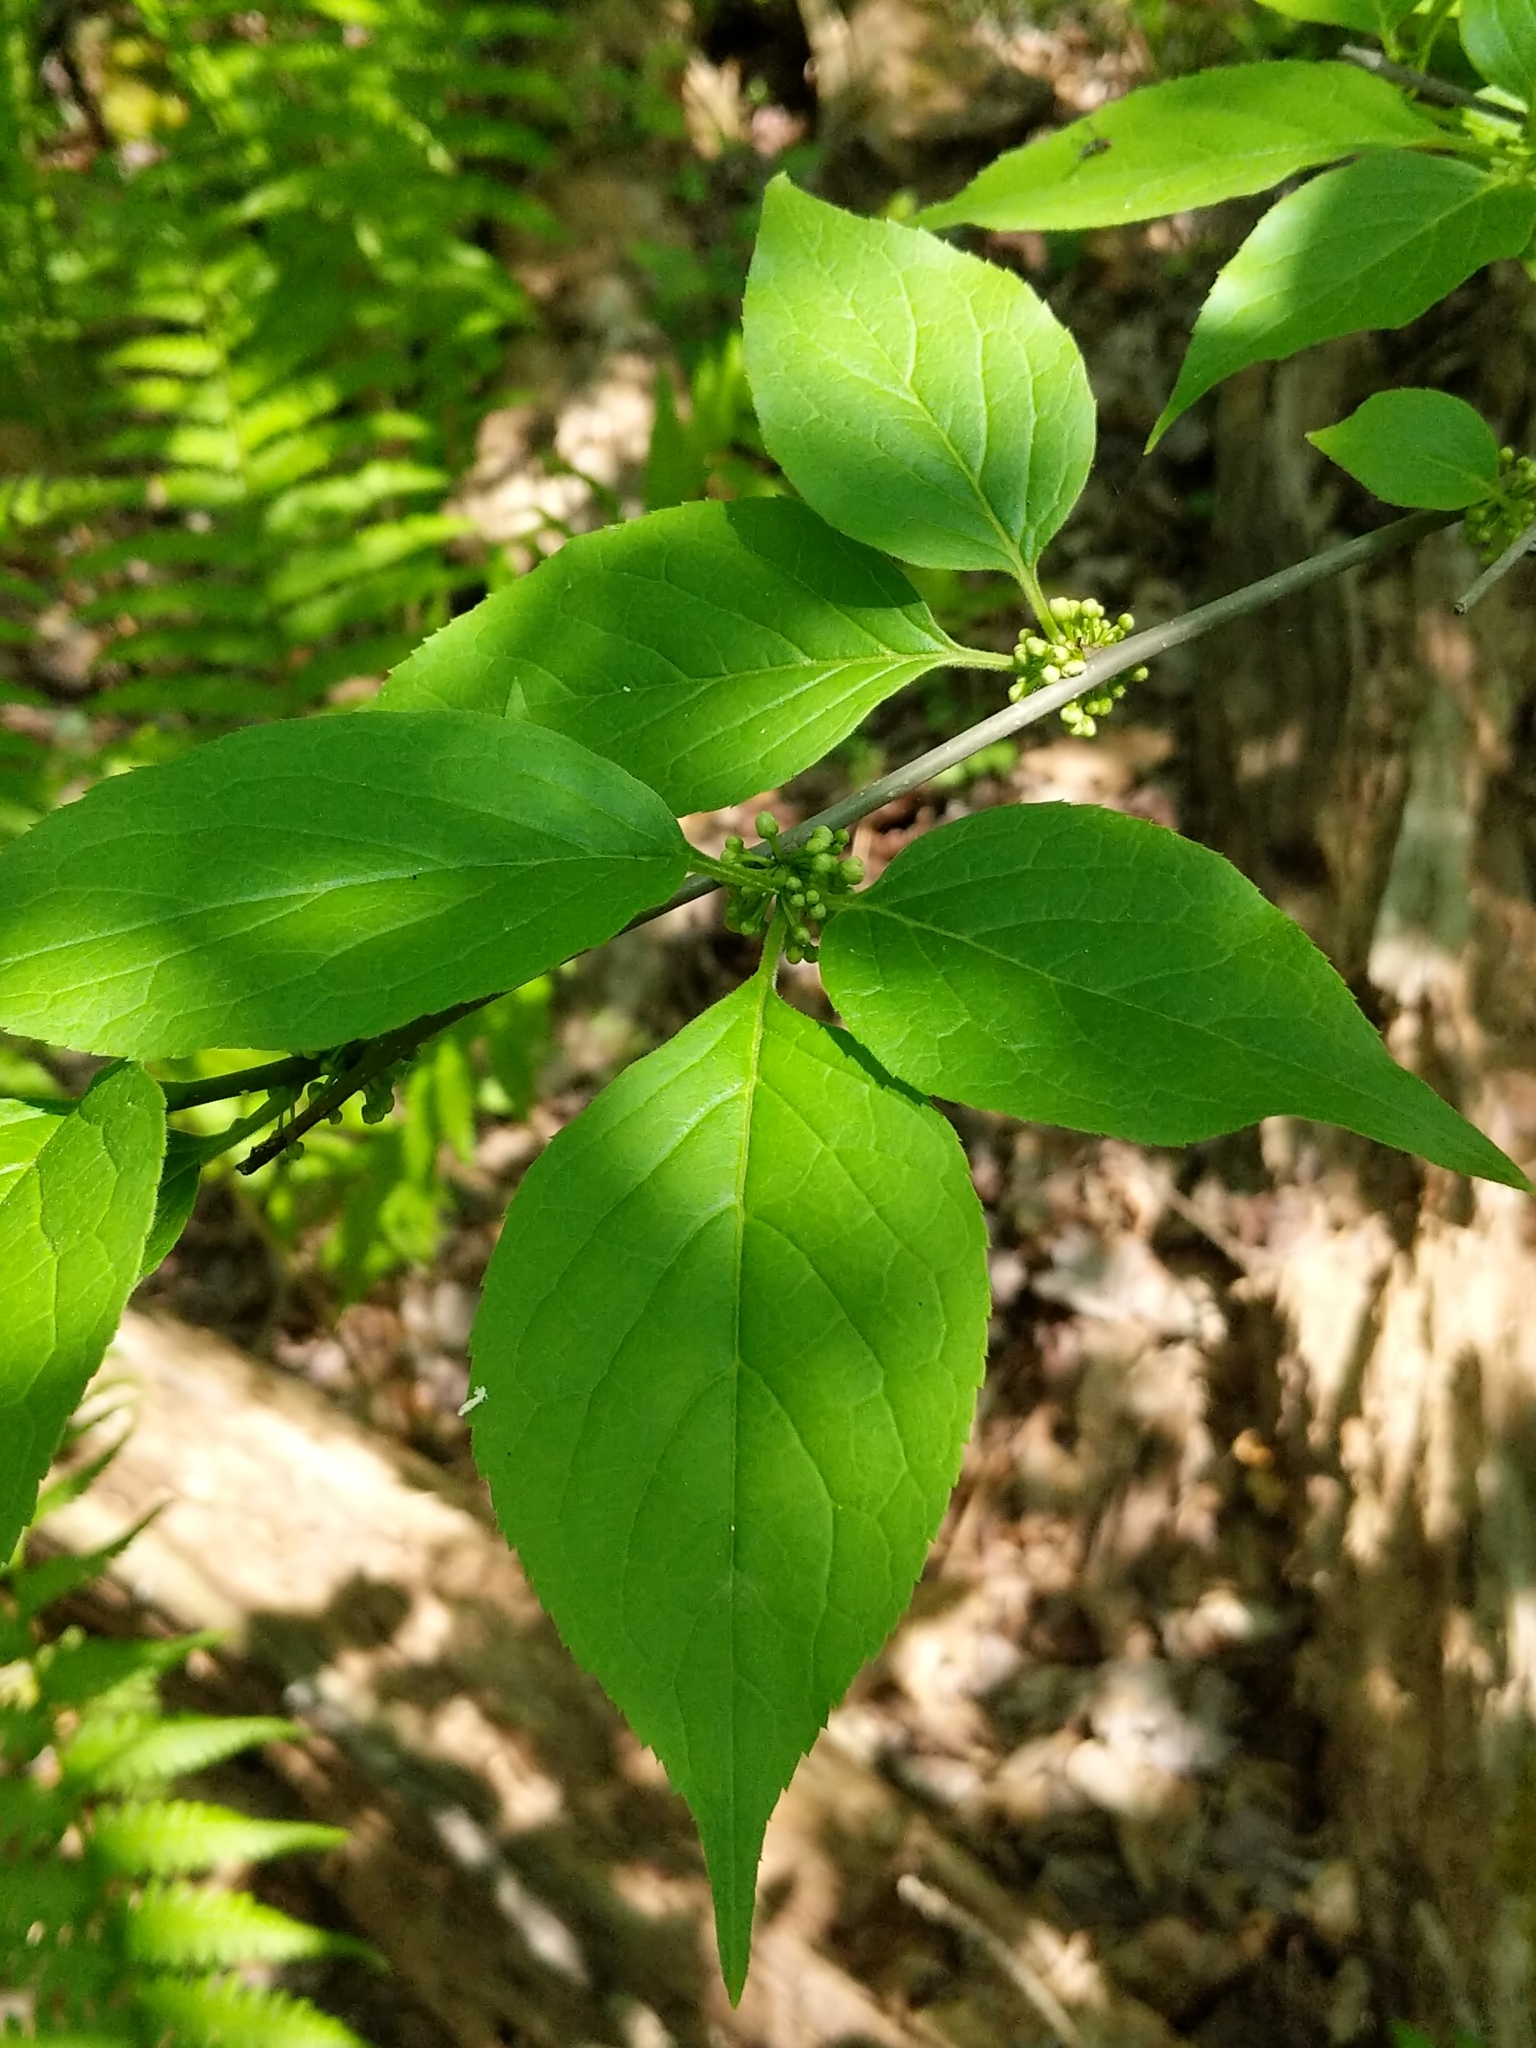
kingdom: Plantae
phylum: Tracheophyta
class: Magnoliopsida
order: Aquifoliales
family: Aquifoliaceae
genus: Ilex
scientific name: Ilex montana
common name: Mountain winterberry
